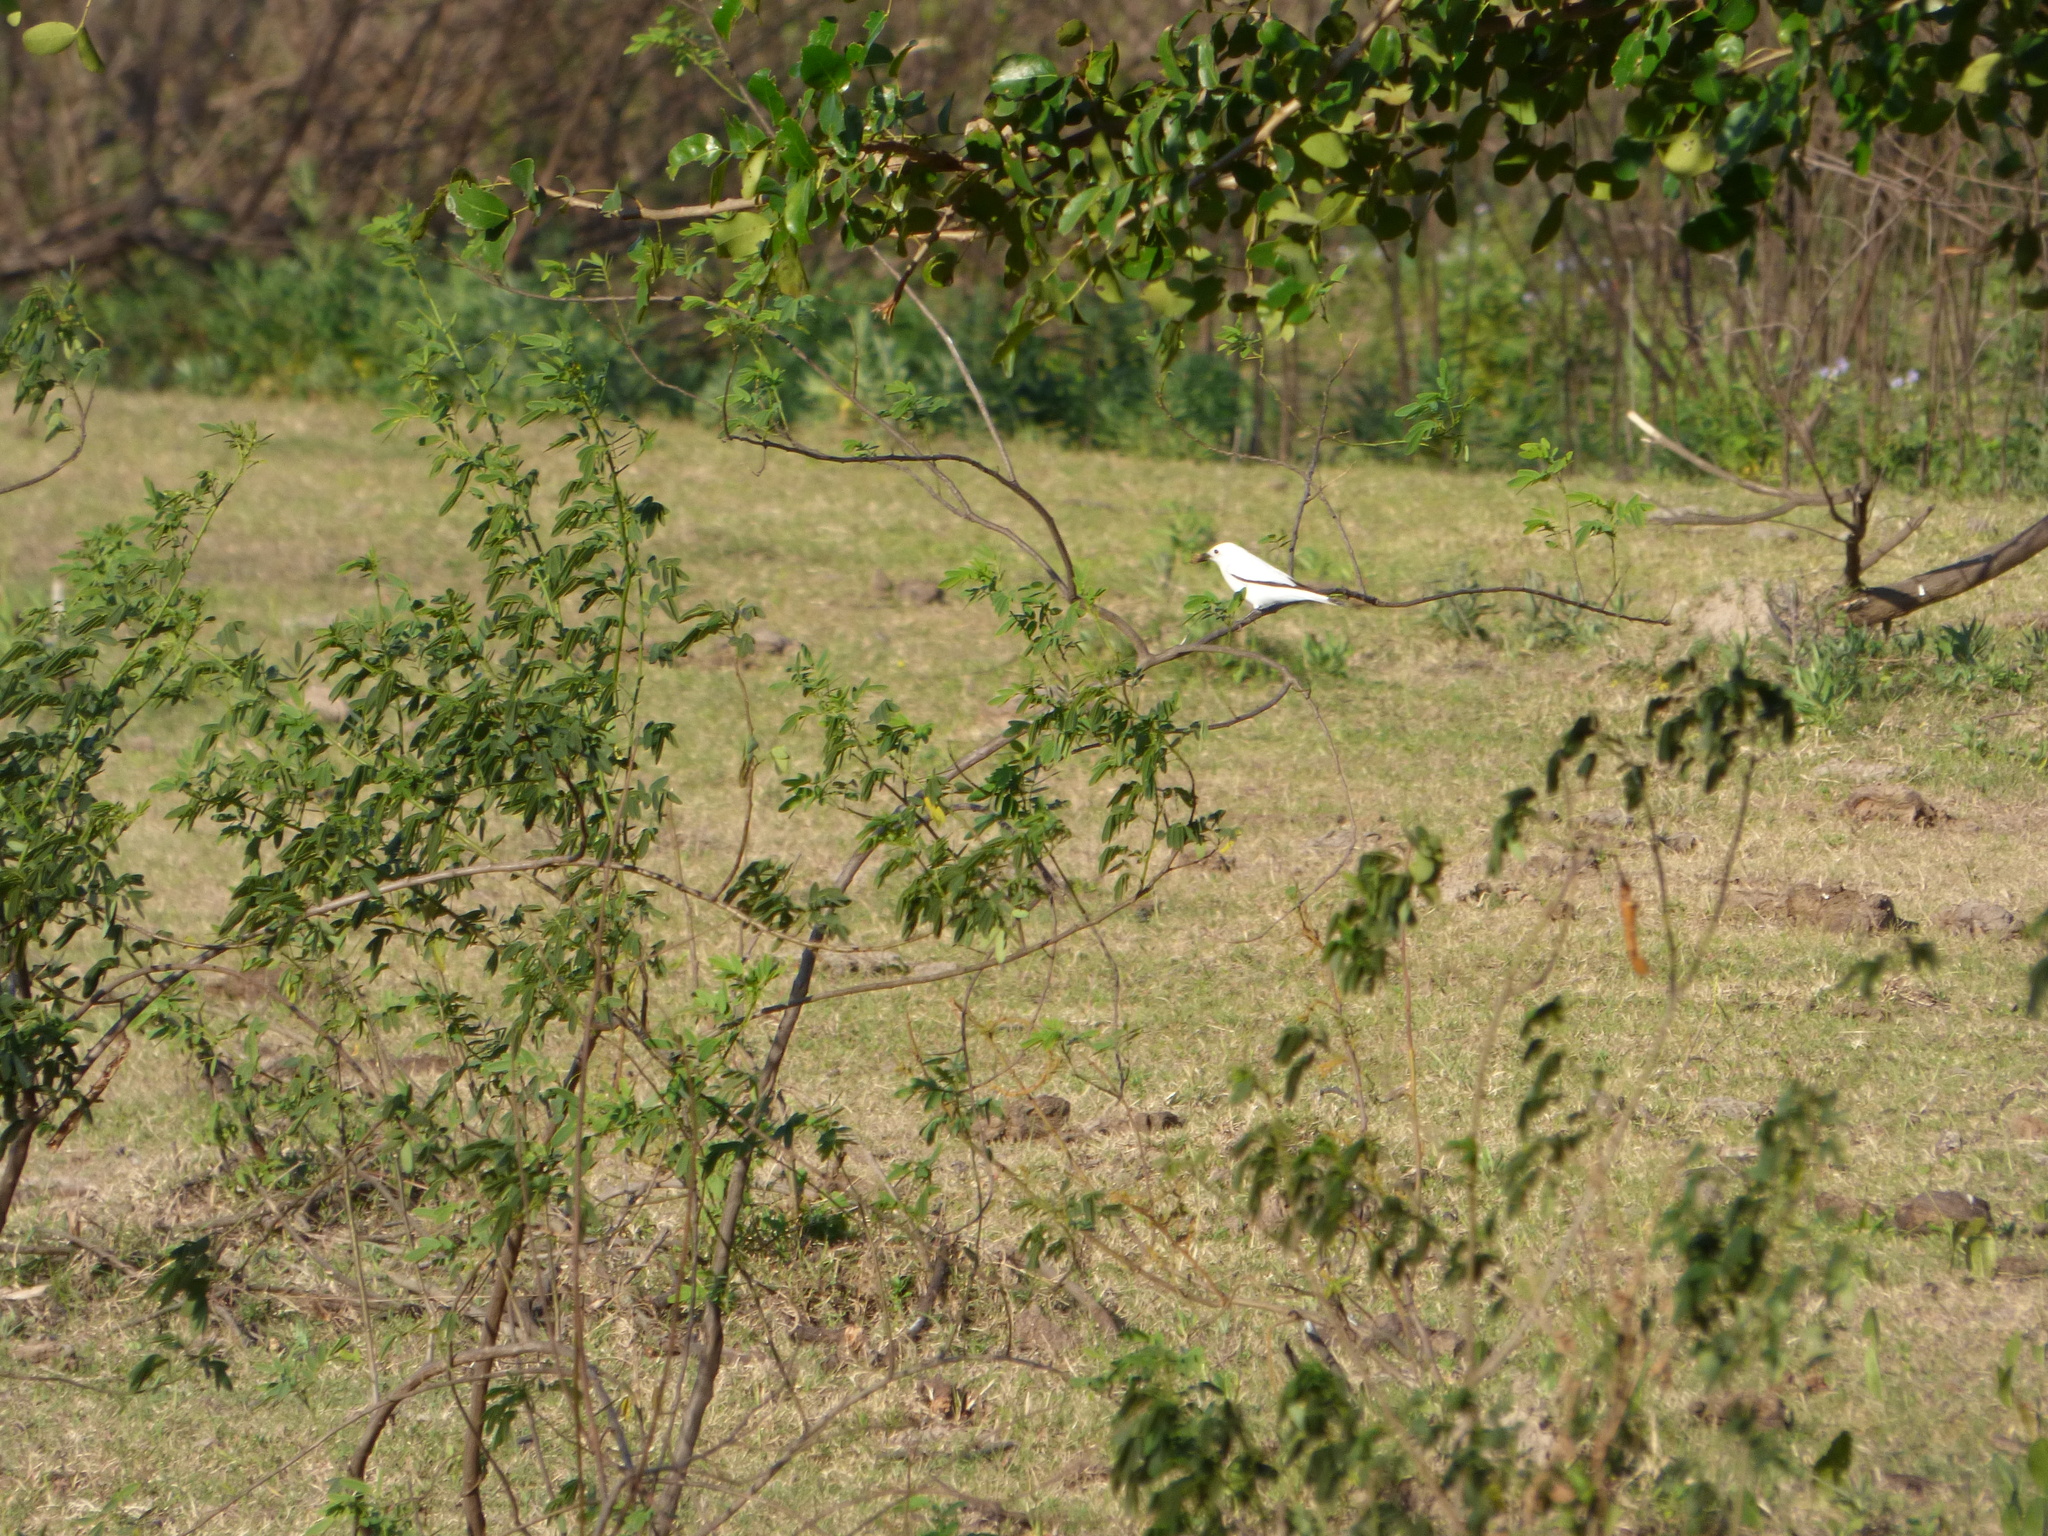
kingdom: Animalia
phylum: Chordata
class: Aves
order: Passeriformes
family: Tyrannidae
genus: Xolmis
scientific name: Xolmis irupero
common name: White monjita
